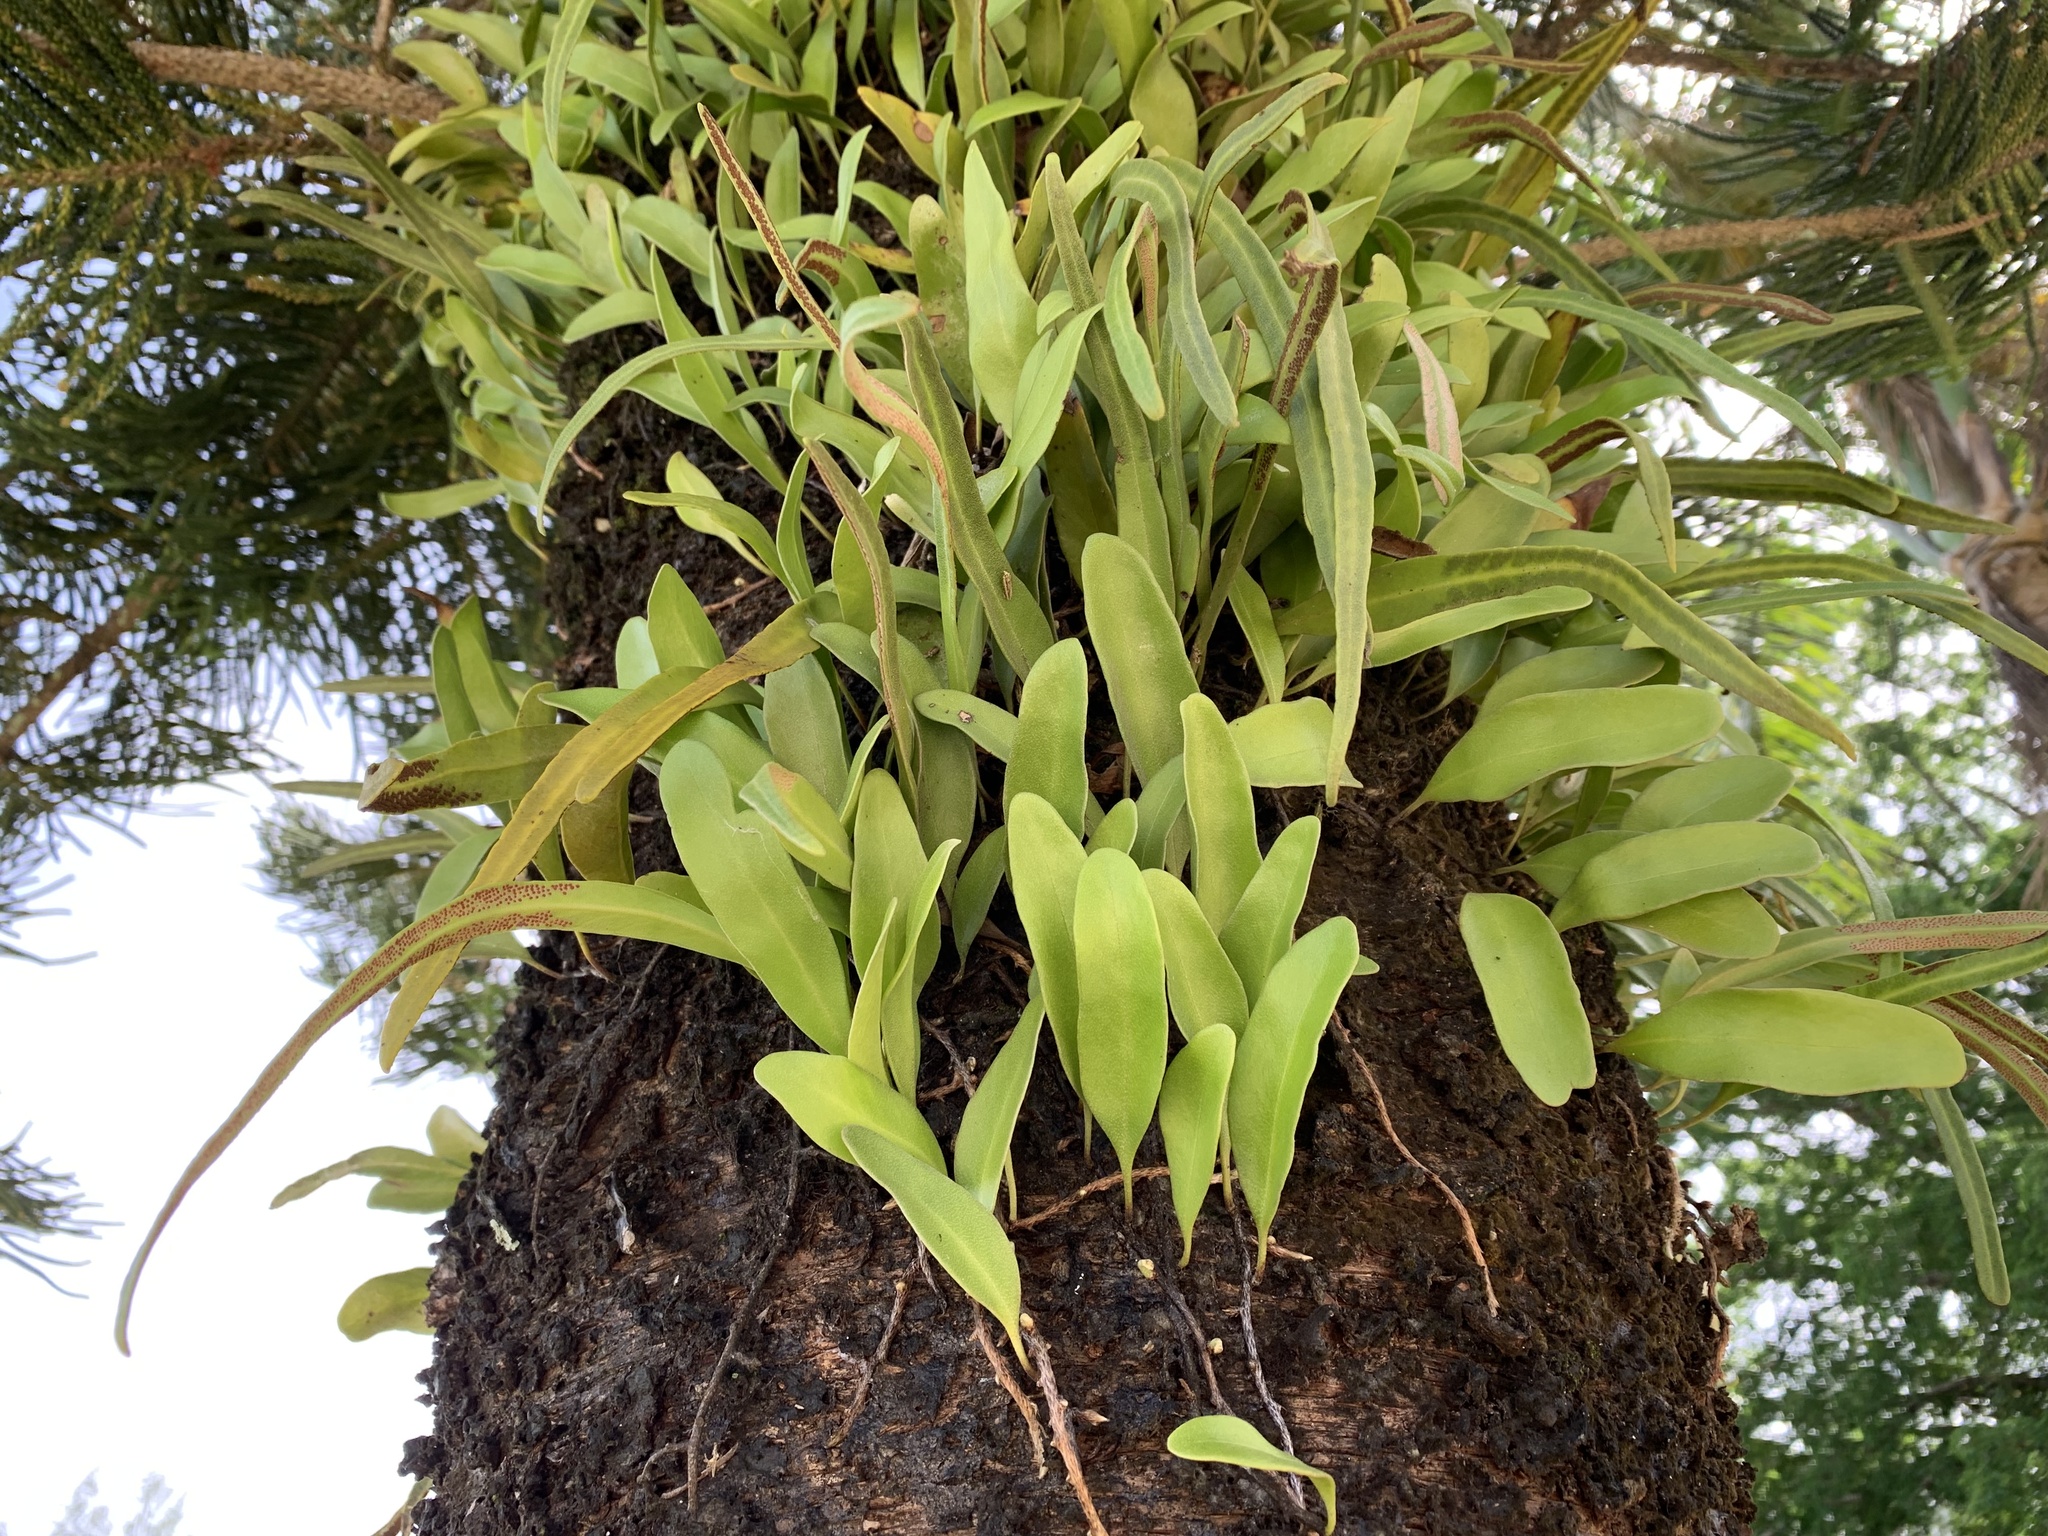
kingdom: Plantae
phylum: Tracheophyta
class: Polypodiopsida
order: Polypodiales
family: Polypodiaceae
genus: Pyrrosia
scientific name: Pyrrosia lanceolata
